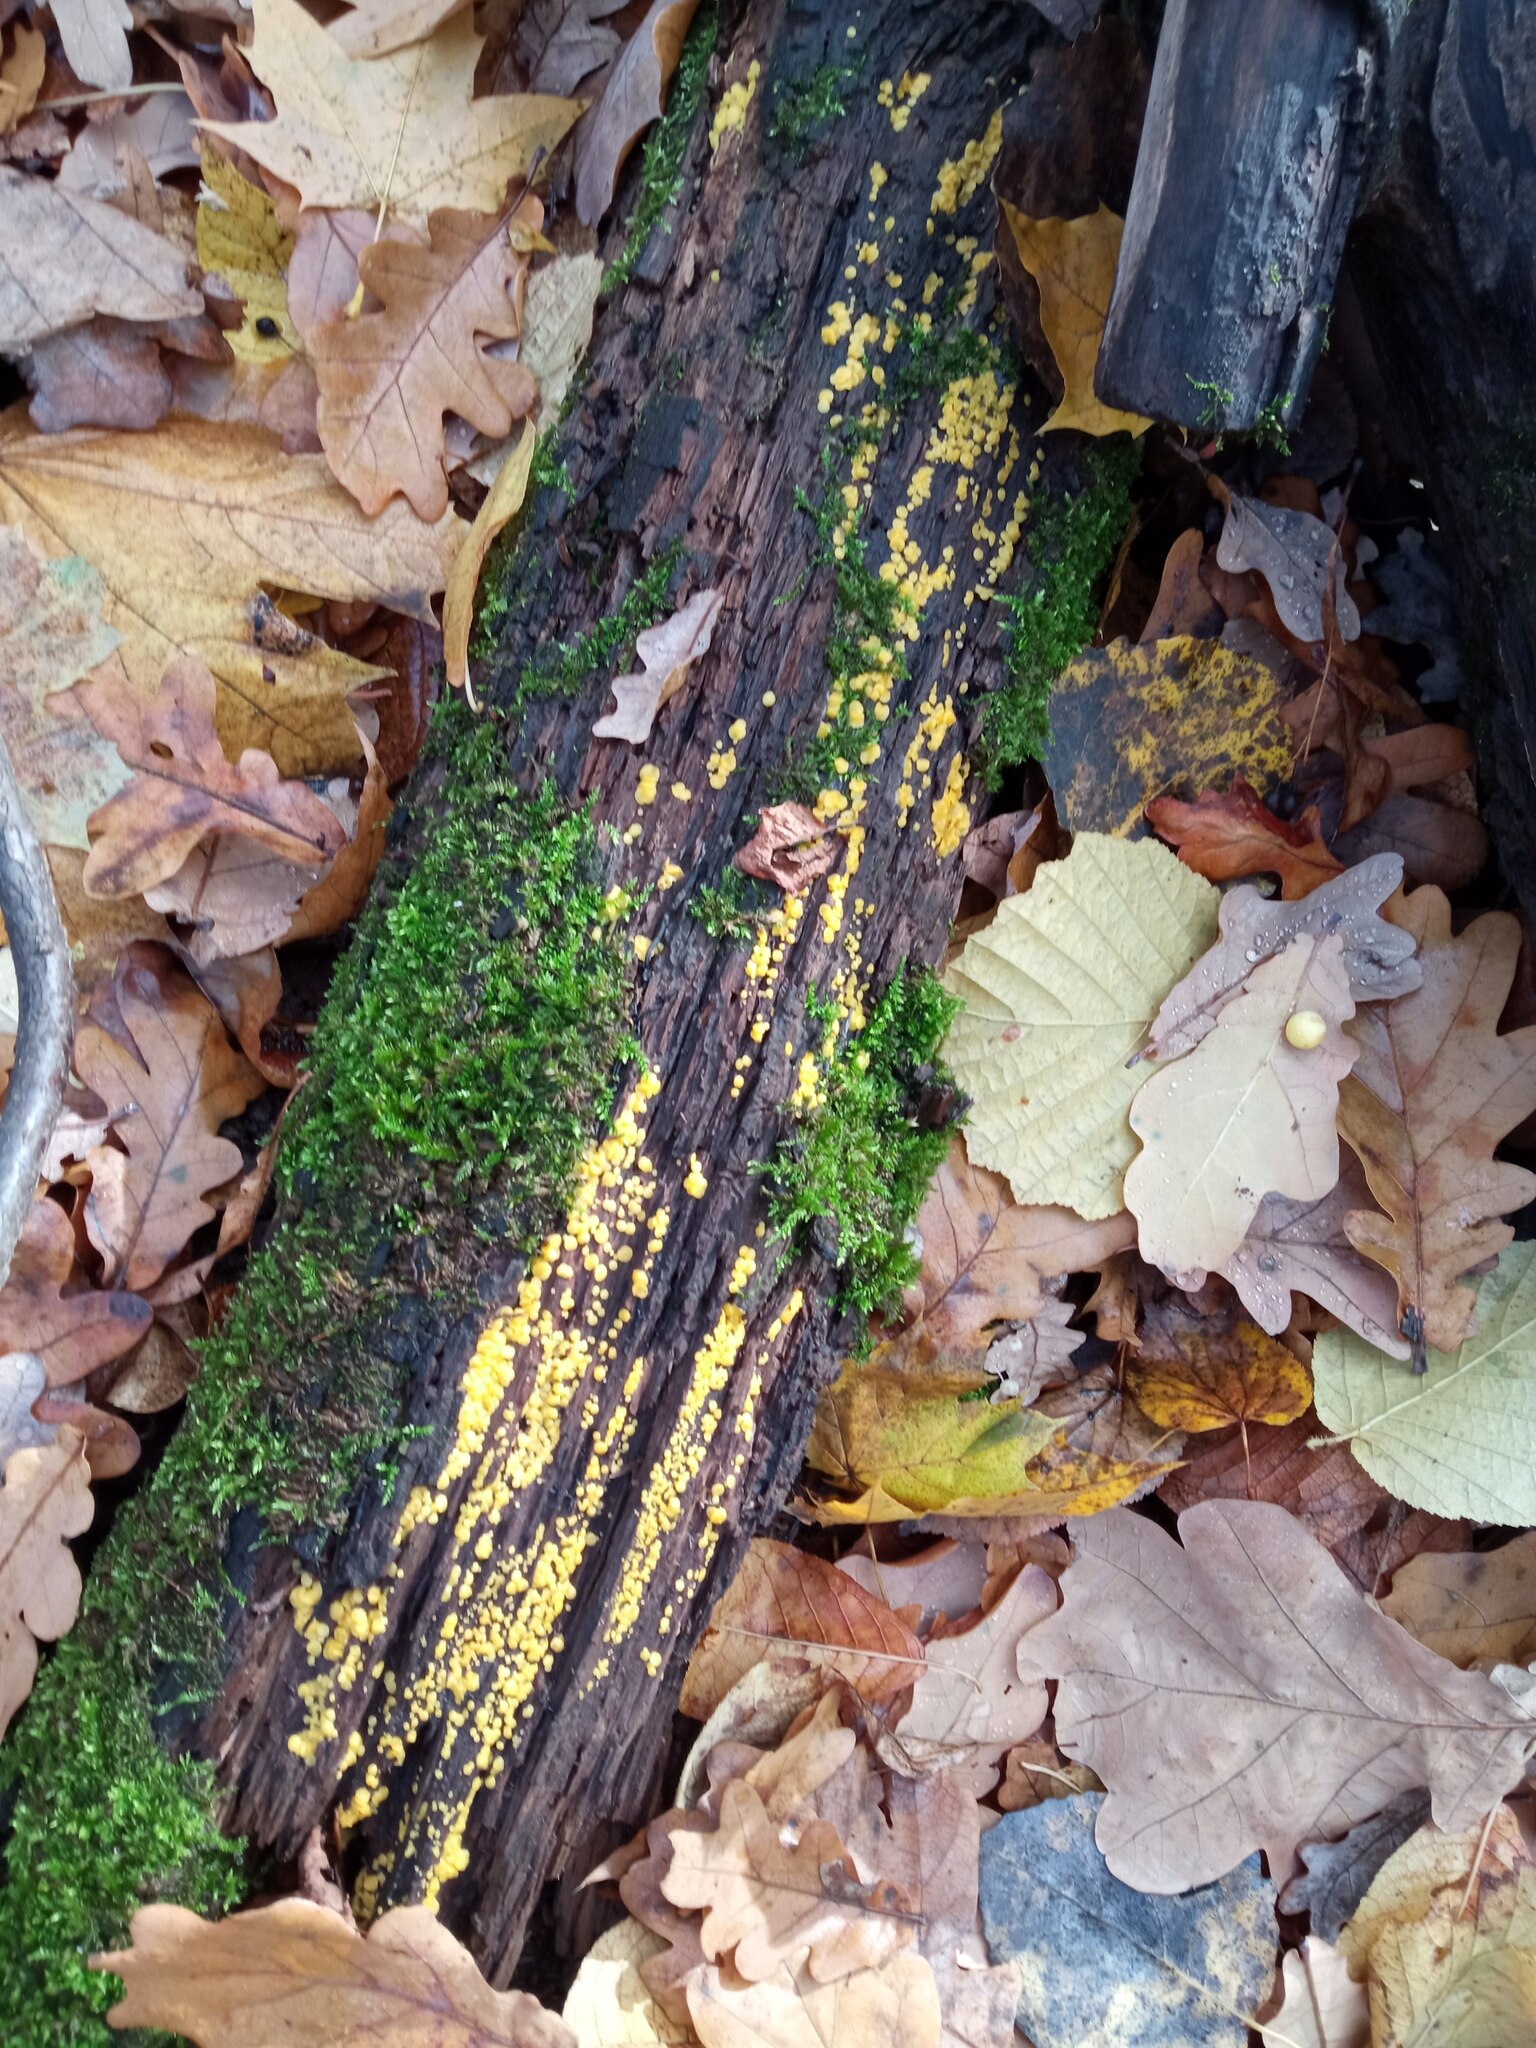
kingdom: Fungi
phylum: Ascomycota
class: Leotiomycetes
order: Helotiales
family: Pezizellaceae
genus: Calycina
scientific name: Calycina citrina
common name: Yellow fairy cups
